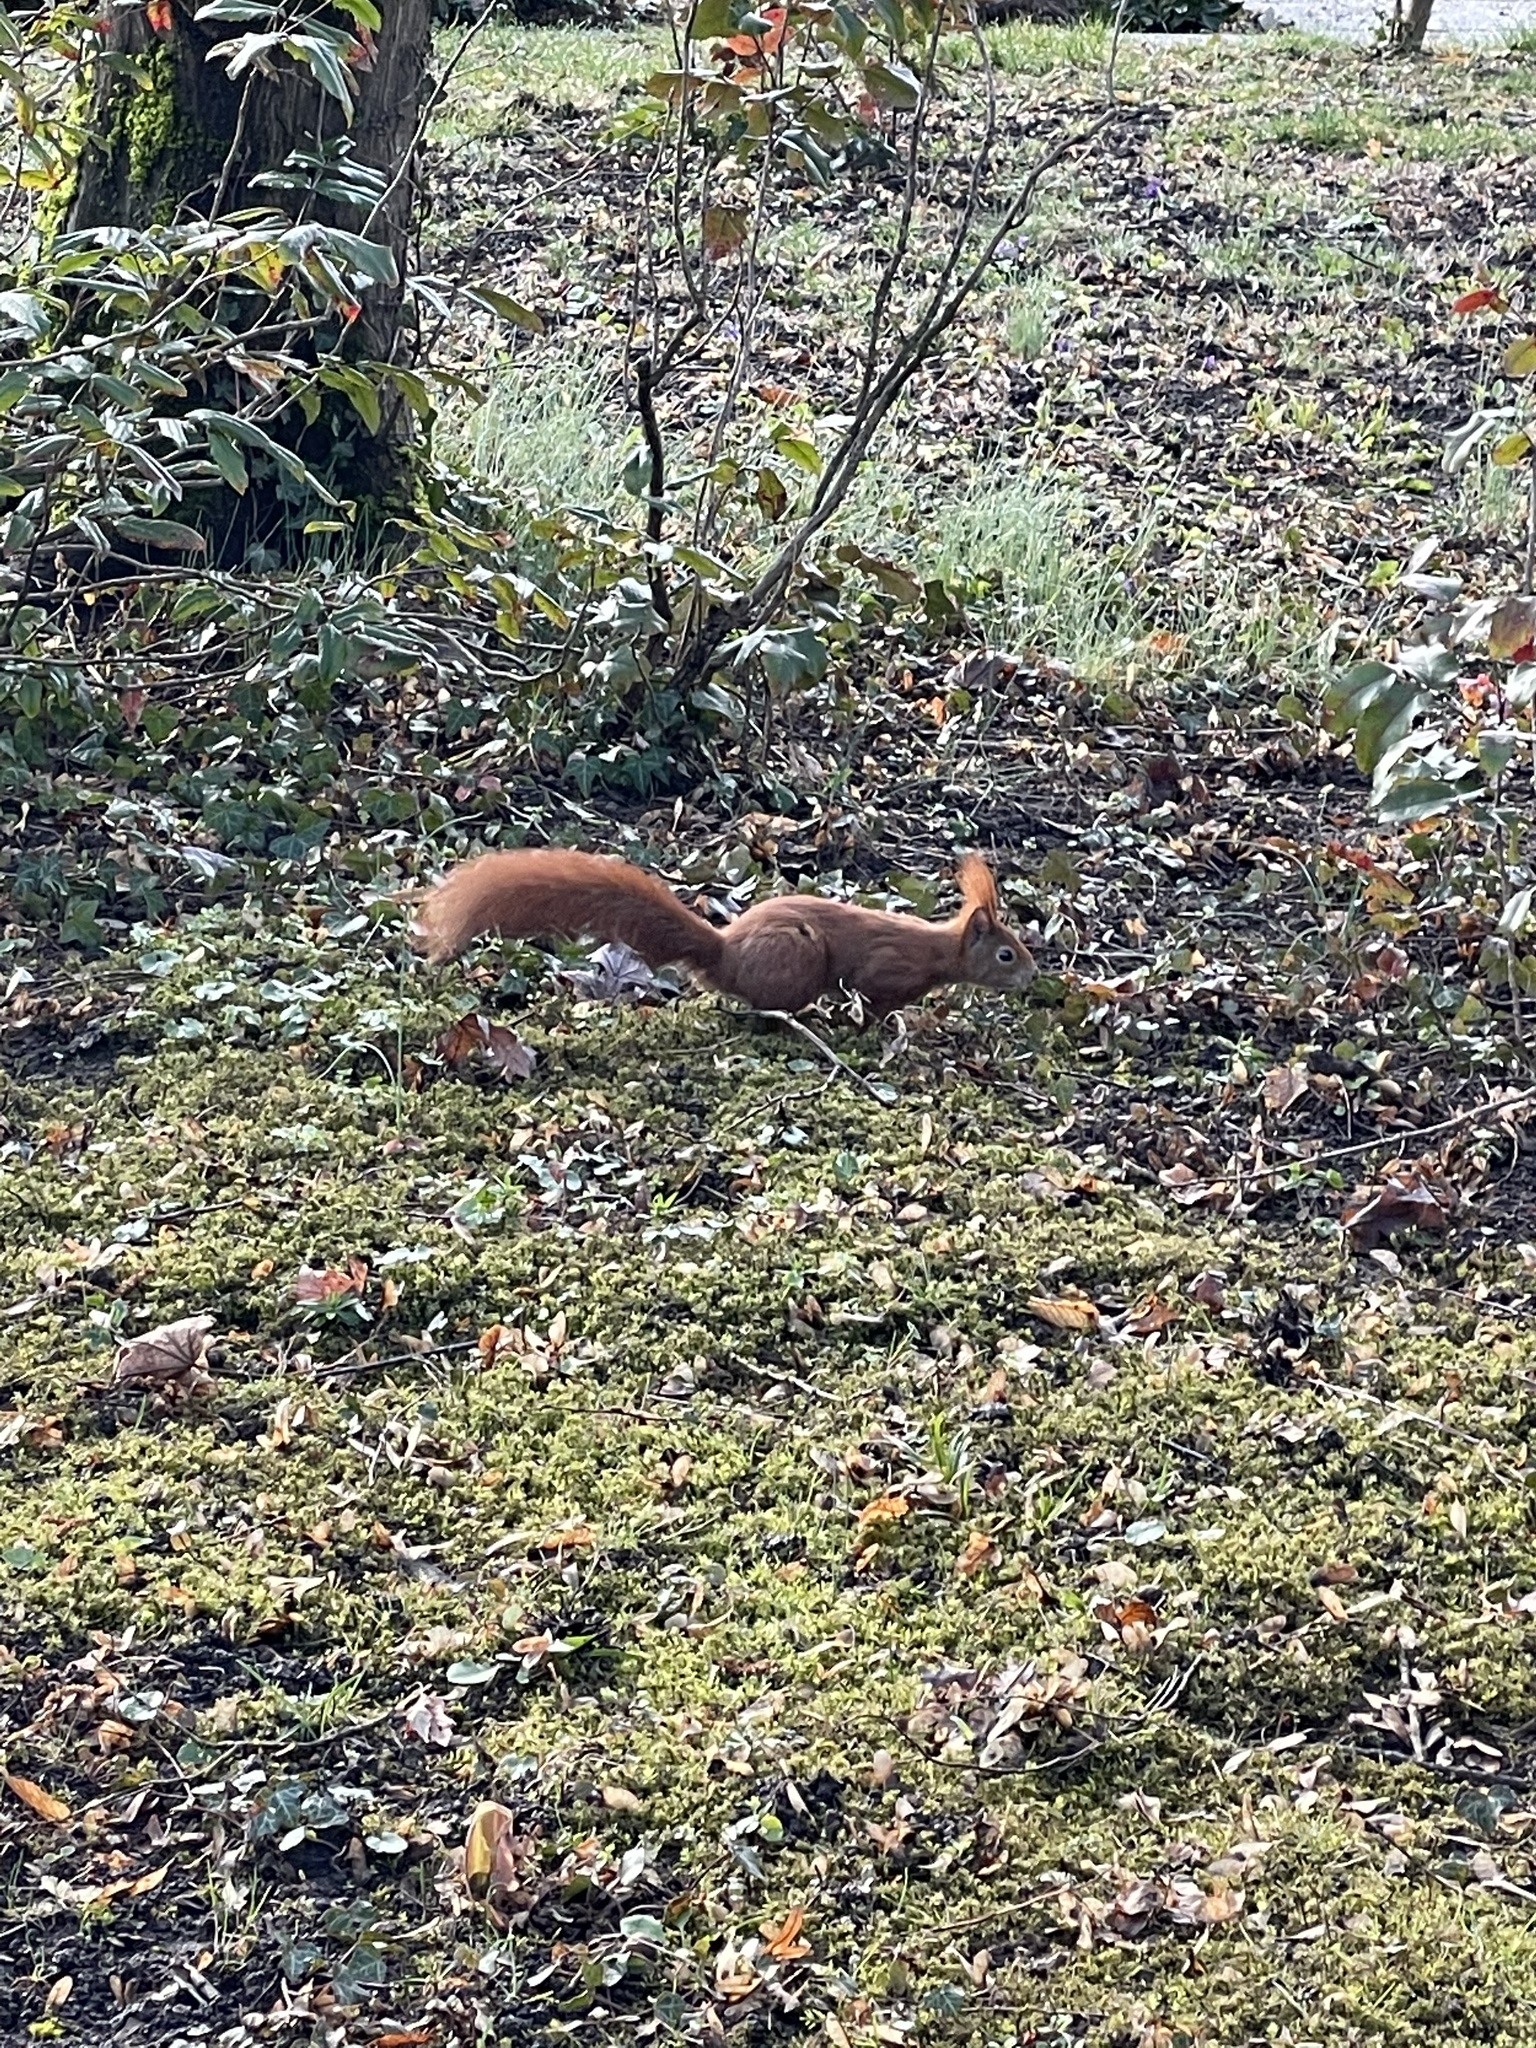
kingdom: Animalia
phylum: Chordata
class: Mammalia
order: Rodentia
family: Sciuridae
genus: Sciurus
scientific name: Sciurus vulgaris
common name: Eurasian red squirrel
